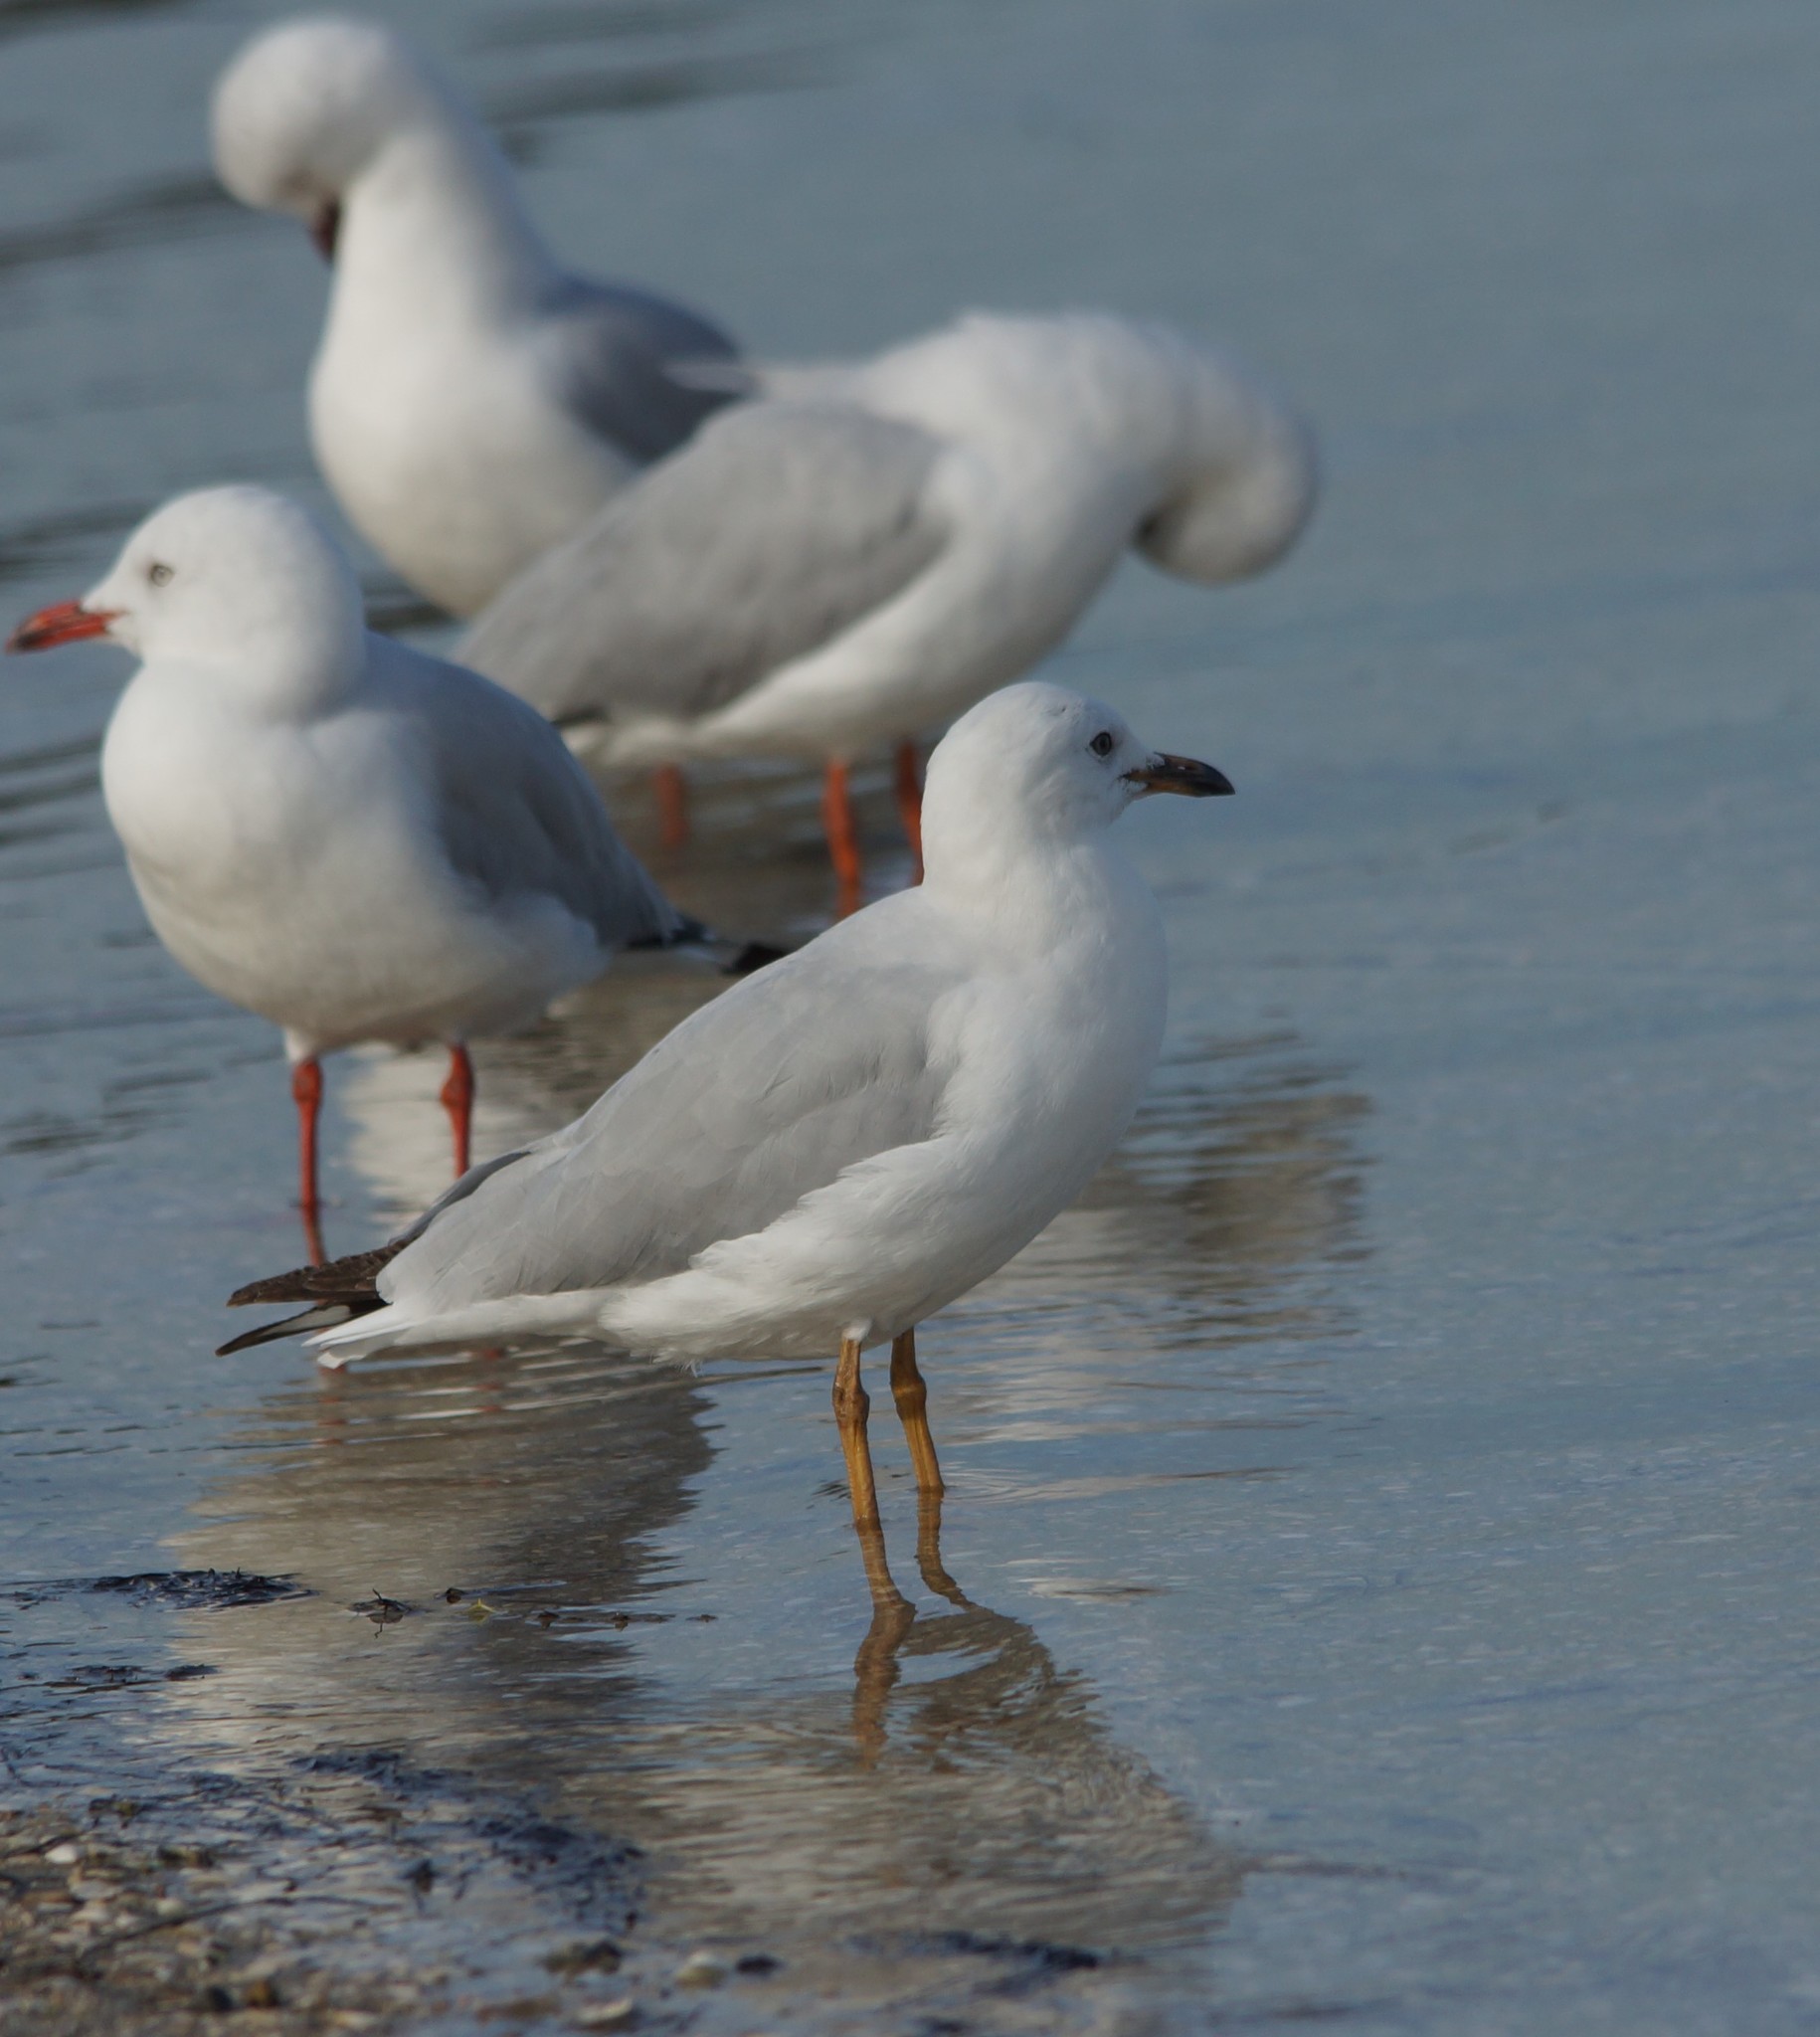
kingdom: Animalia
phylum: Chordata
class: Aves
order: Charadriiformes
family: Laridae
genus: Chroicocephalus
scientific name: Chroicocephalus novaehollandiae
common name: Silver gull
